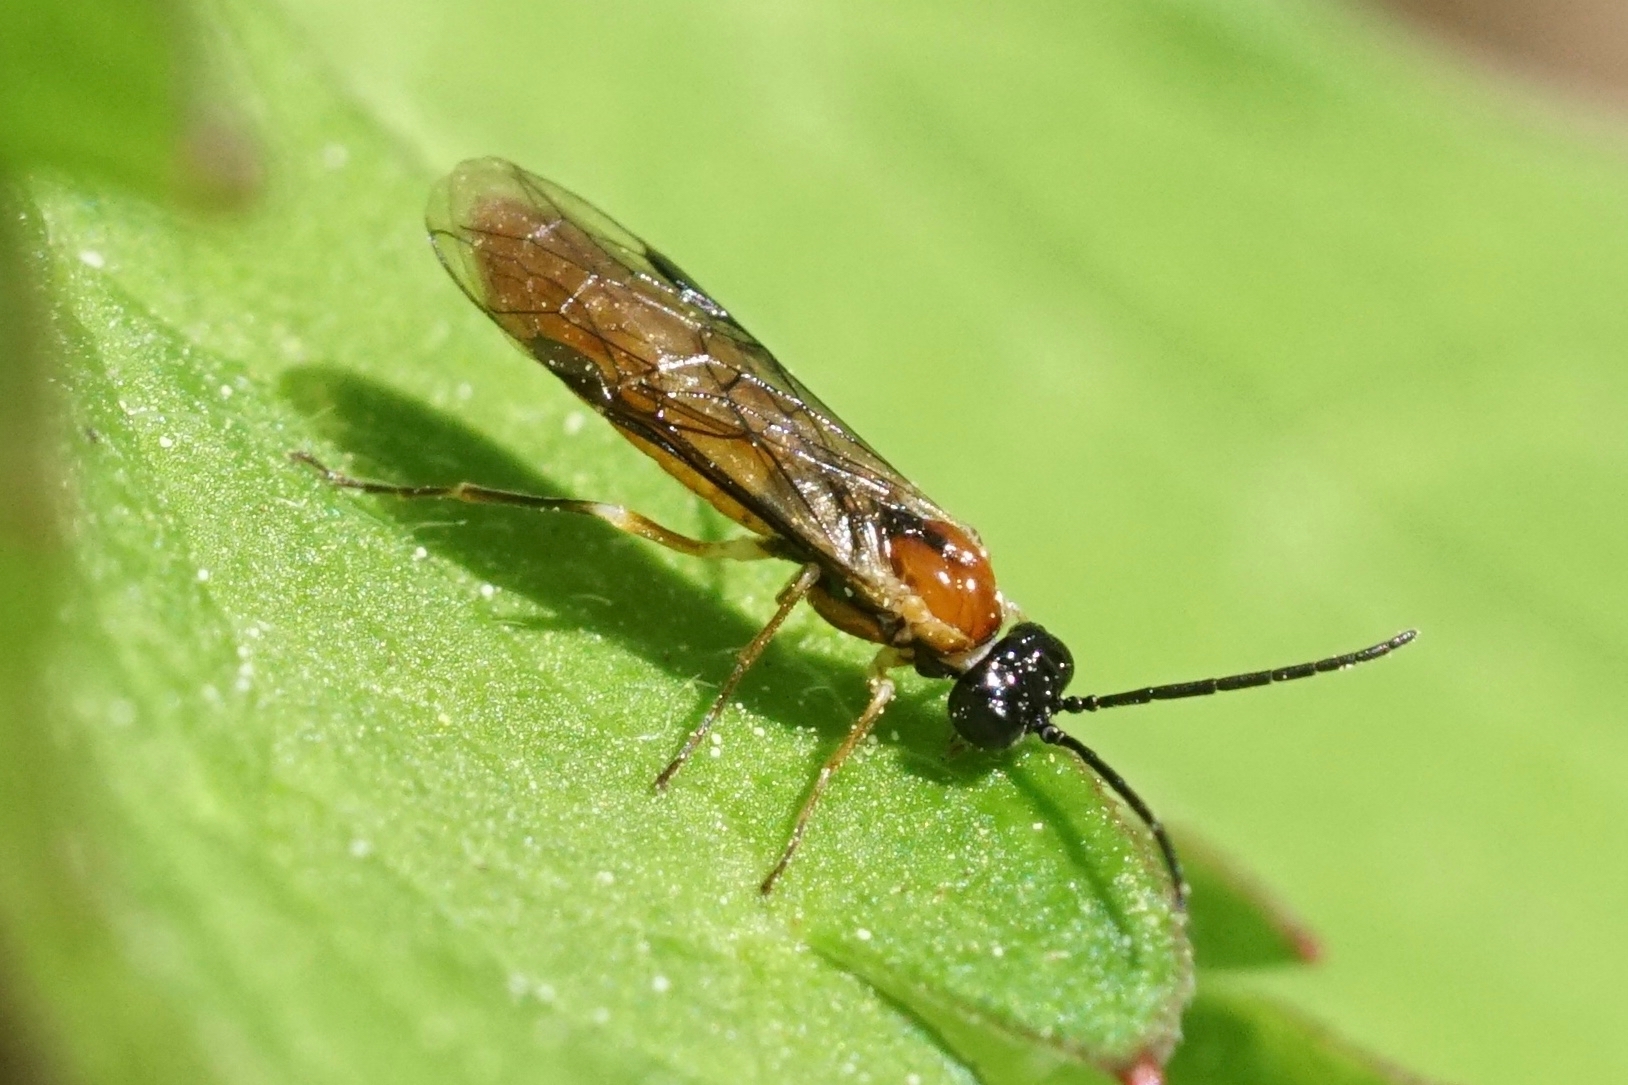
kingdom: Animalia
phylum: Arthropoda
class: Insecta
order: Hymenoptera
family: Tenthredinidae
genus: Thrinax
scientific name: Thrinax dubitata
